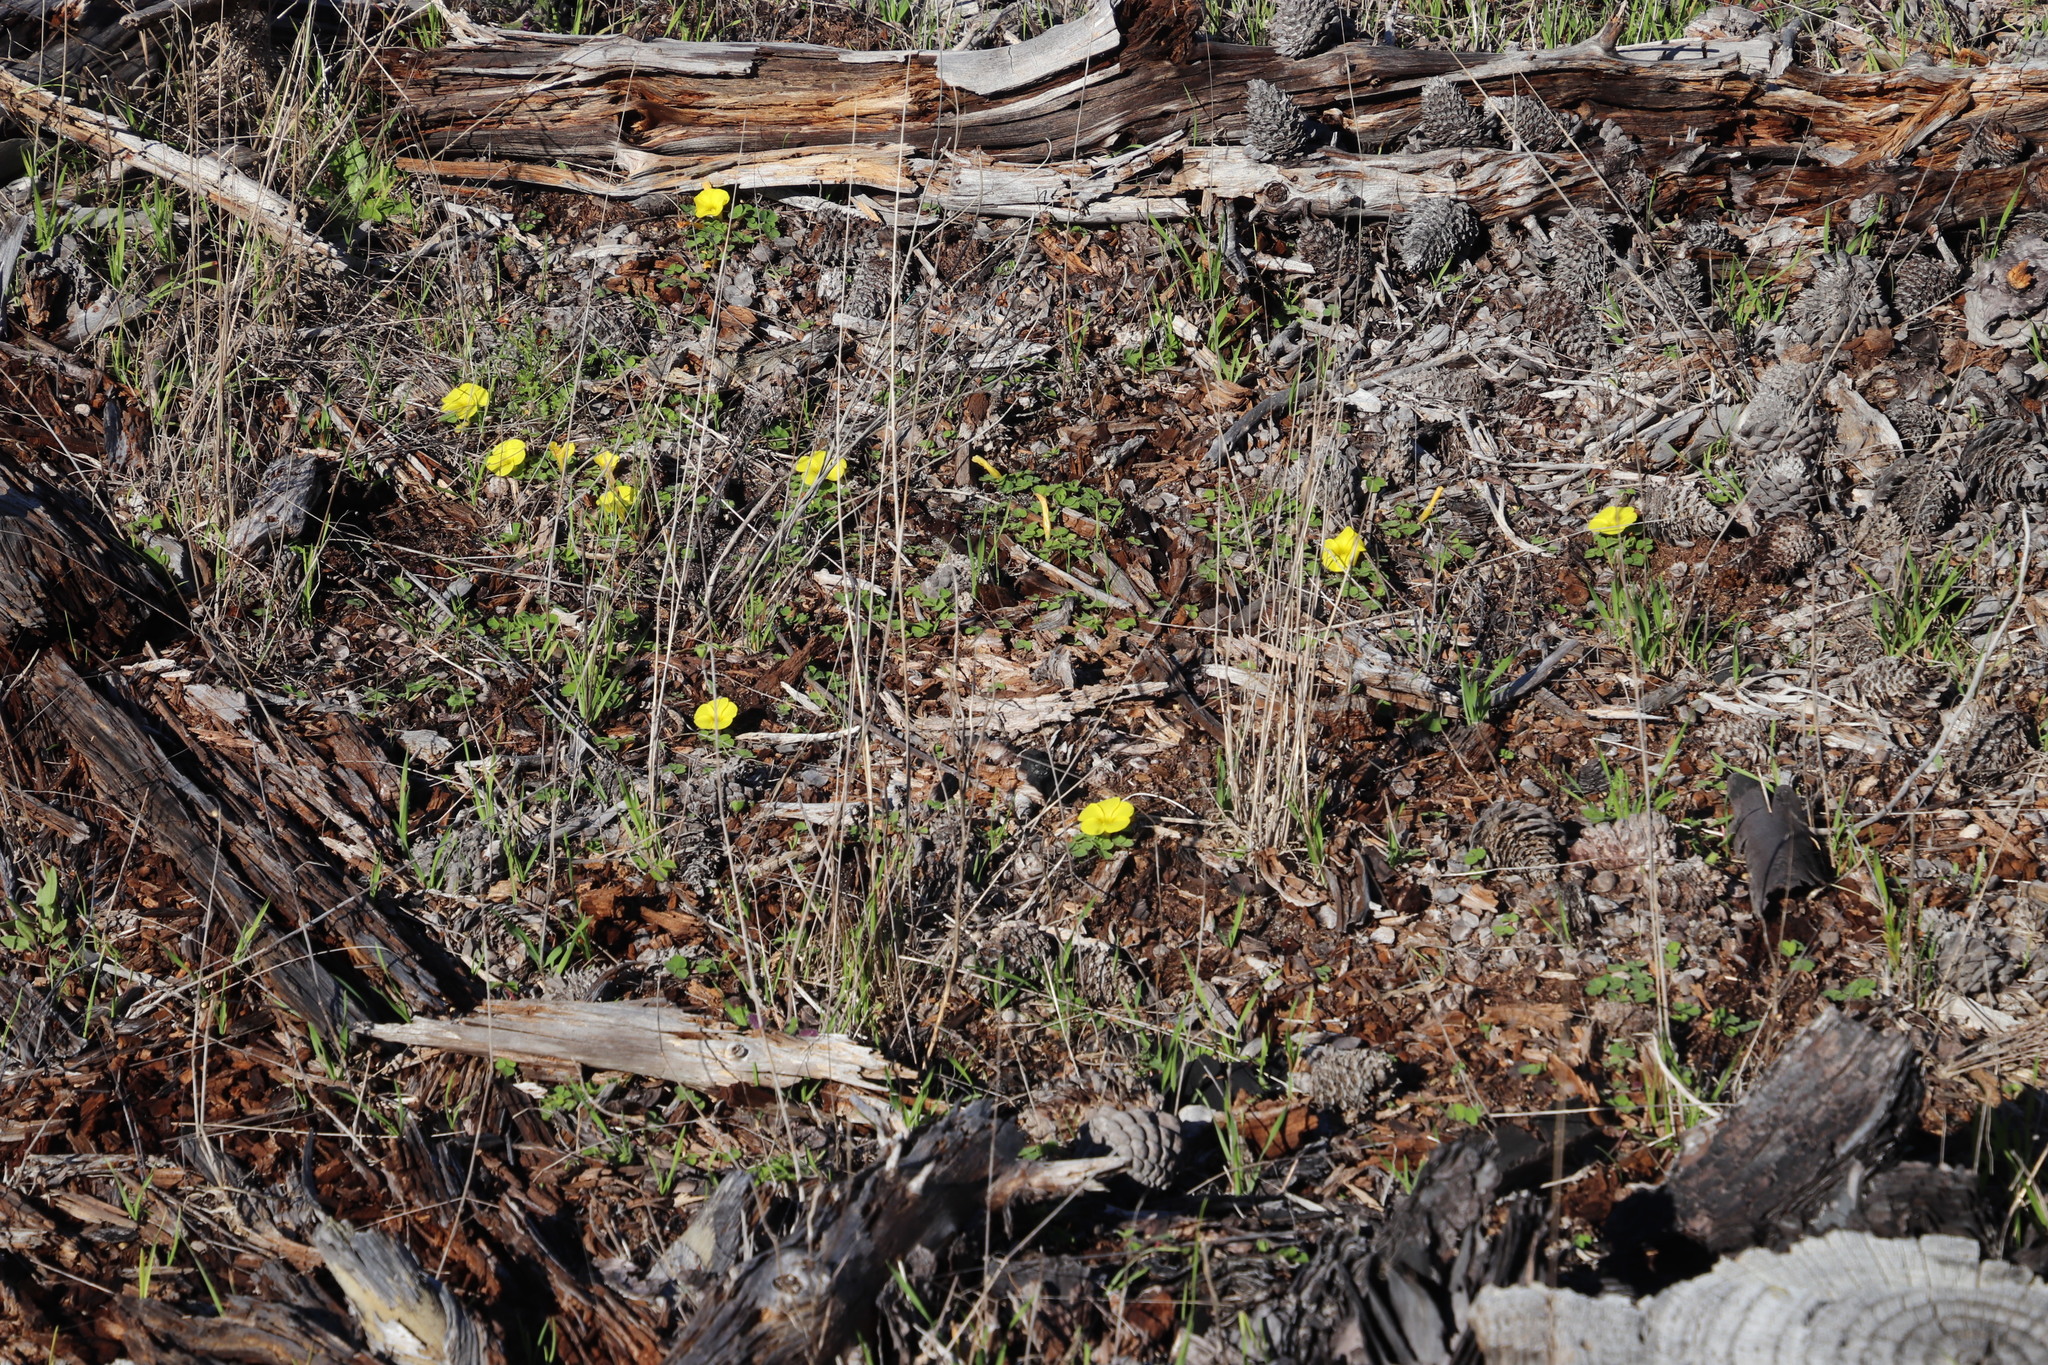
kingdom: Plantae
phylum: Tracheophyta
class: Magnoliopsida
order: Oxalidales
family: Oxalidaceae
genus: Oxalis
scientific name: Oxalis luteola
